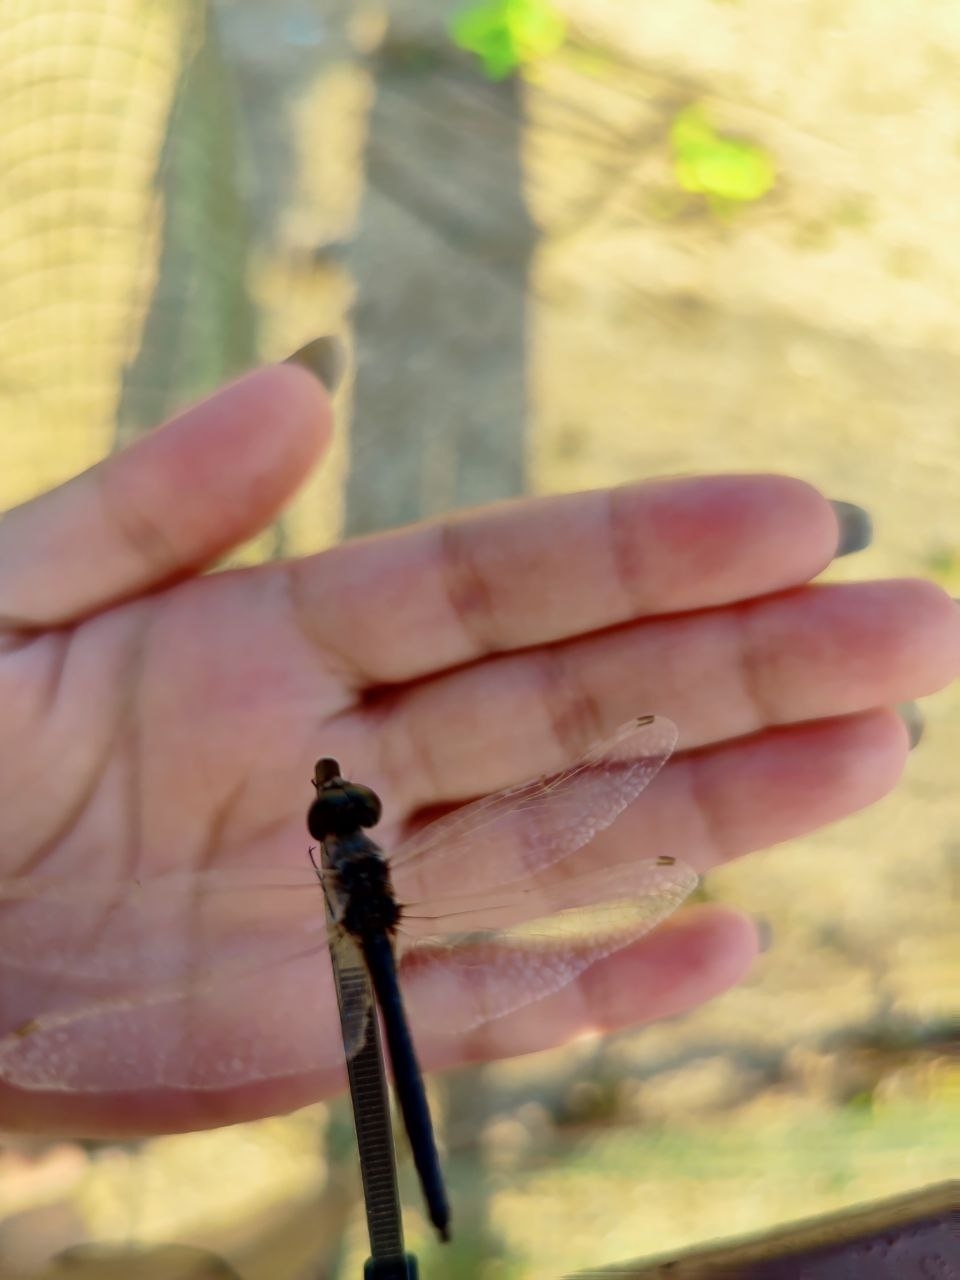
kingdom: Animalia
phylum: Arthropoda
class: Insecta
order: Odonata
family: Libellulidae
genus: Selysiothemis
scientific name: Selysiothemis nigra
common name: Black pennant
